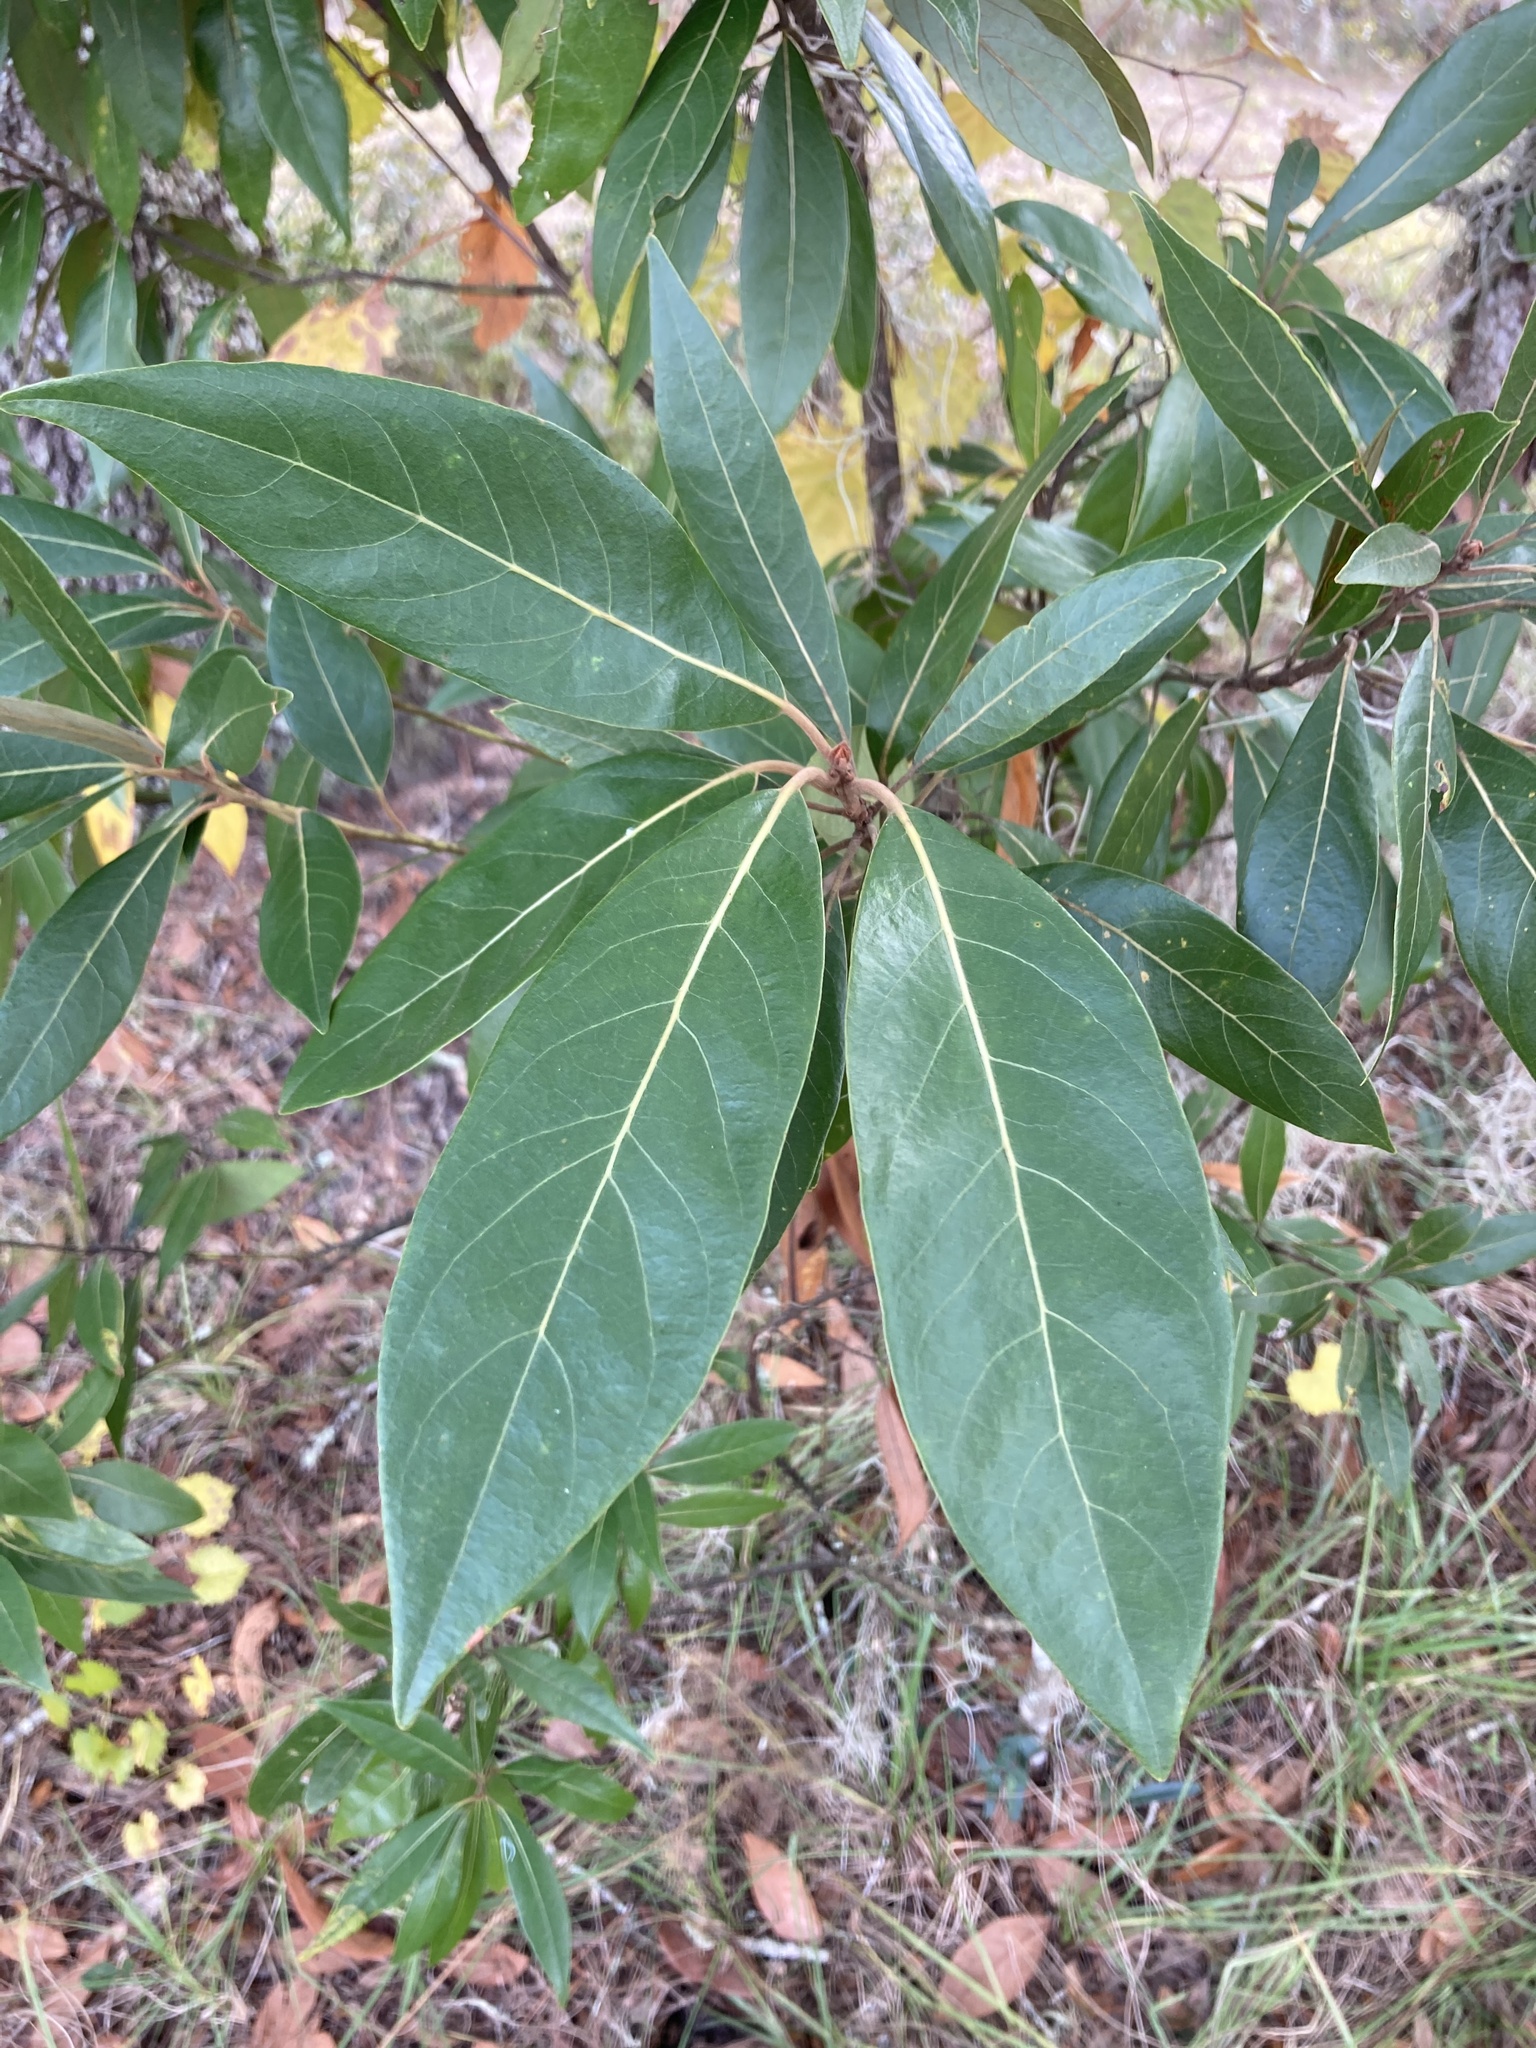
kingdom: Plantae
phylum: Tracheophyta
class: Magnoliopsida
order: Laurales
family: Lauraceae
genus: Persea
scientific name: Persea palustris
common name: Swampbay
